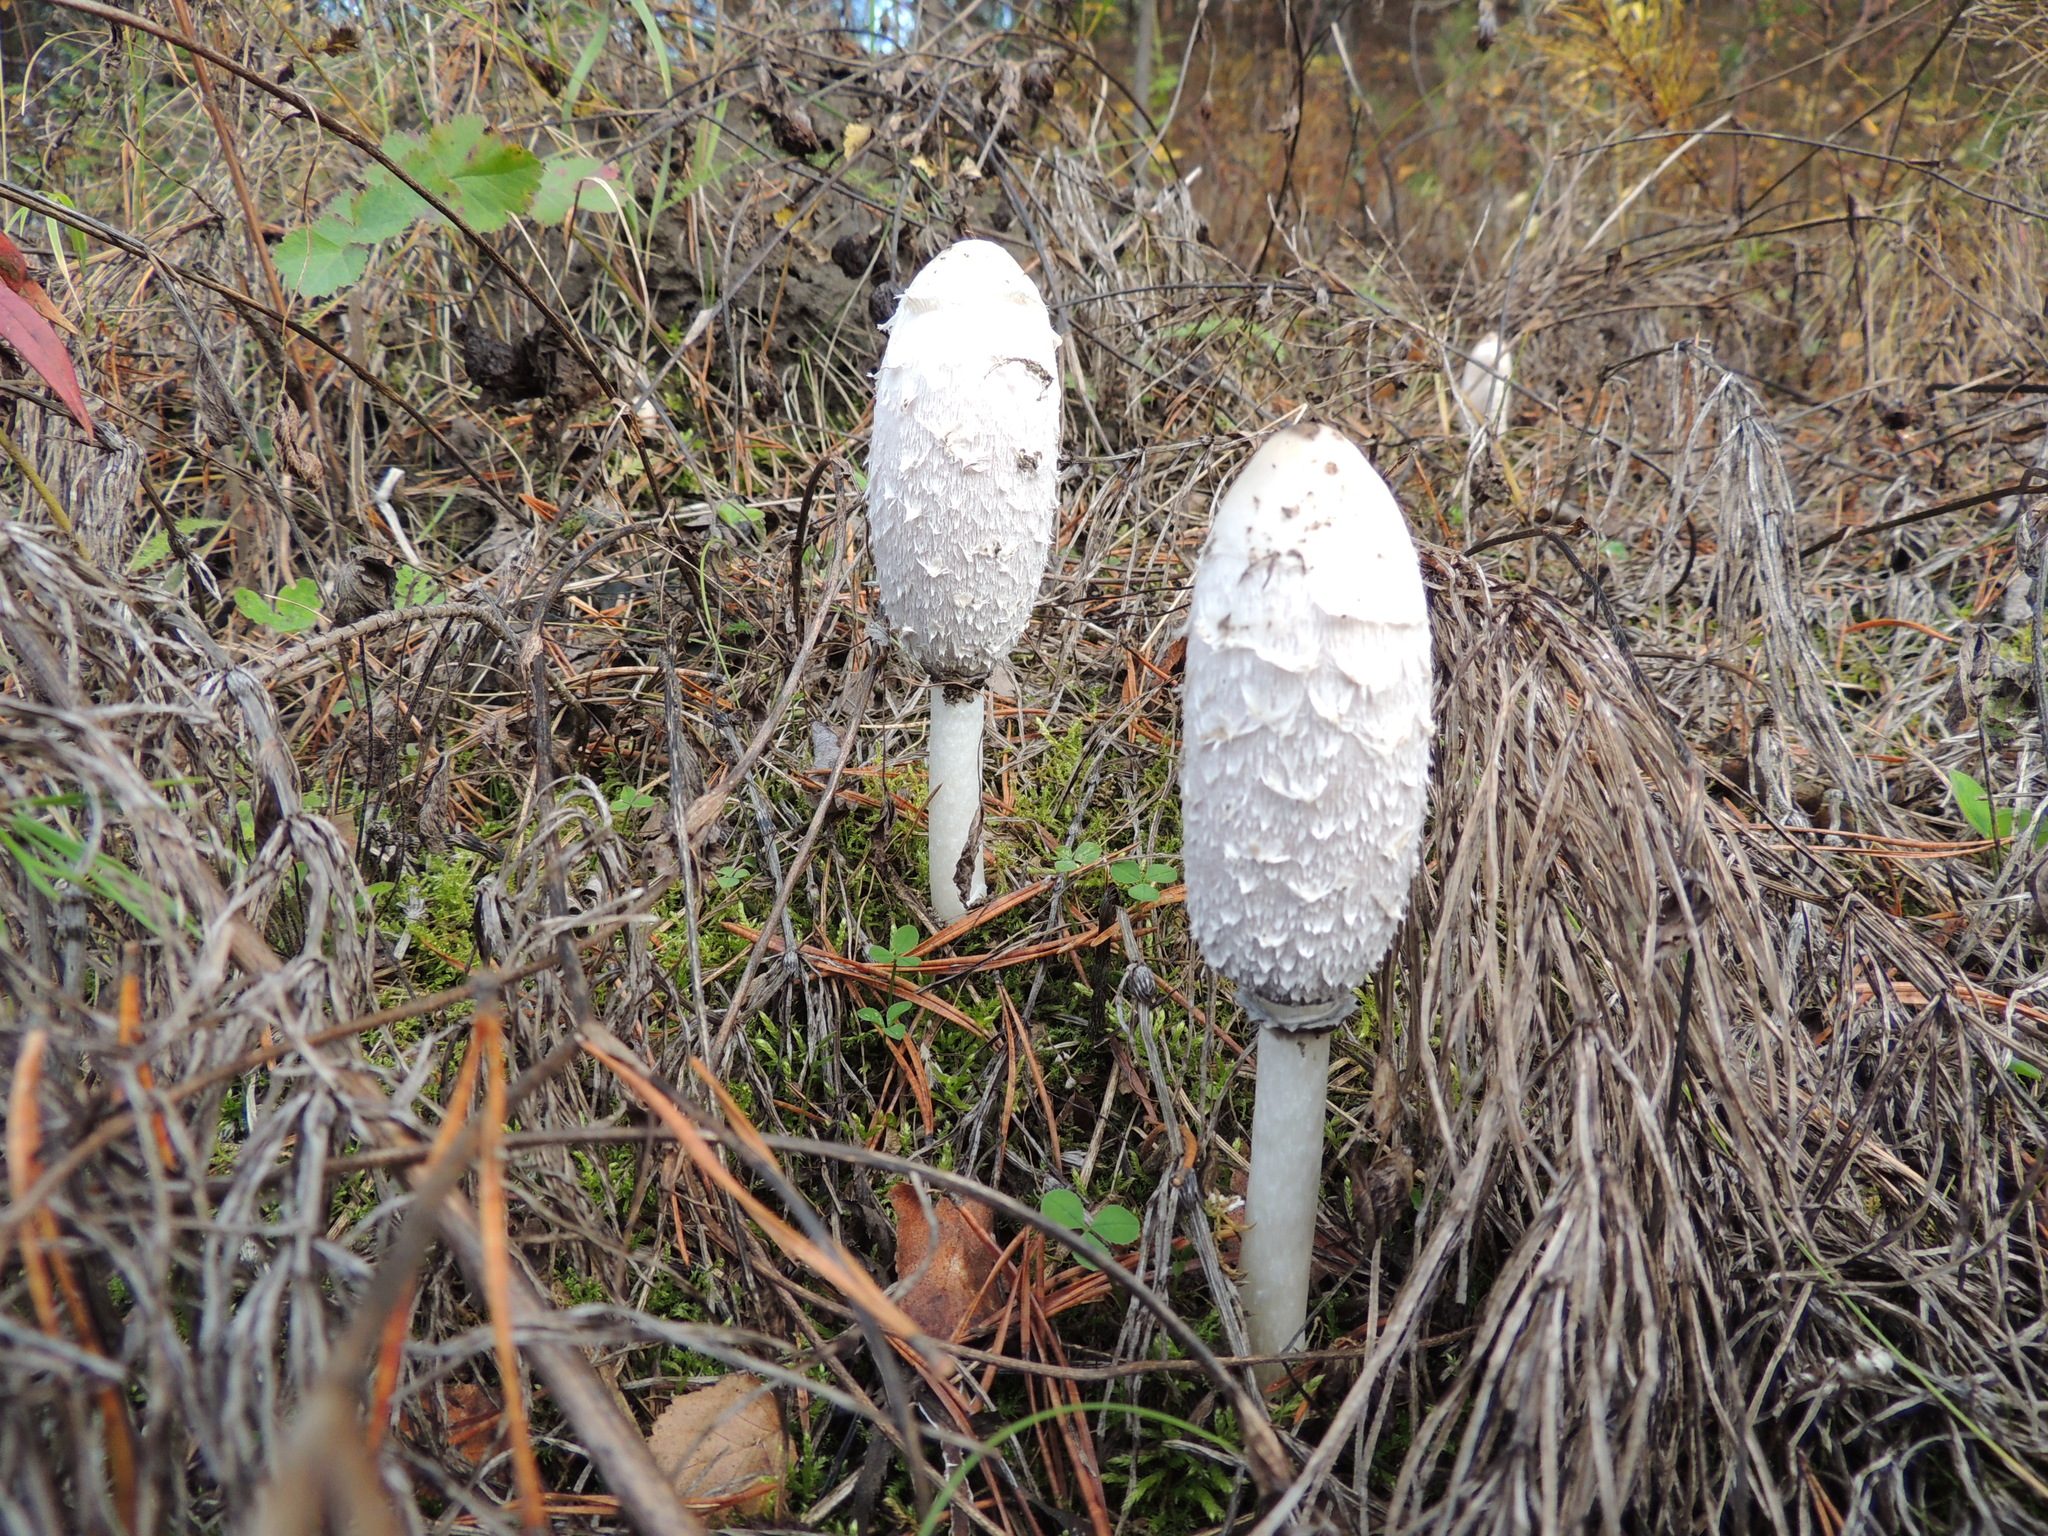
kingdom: Fungi
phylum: Basidiomycota
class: Agaricomycetes
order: Agaricales
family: Agaricaceae
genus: Coprinus
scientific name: Coprinus comatus
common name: Lawyer's wig
